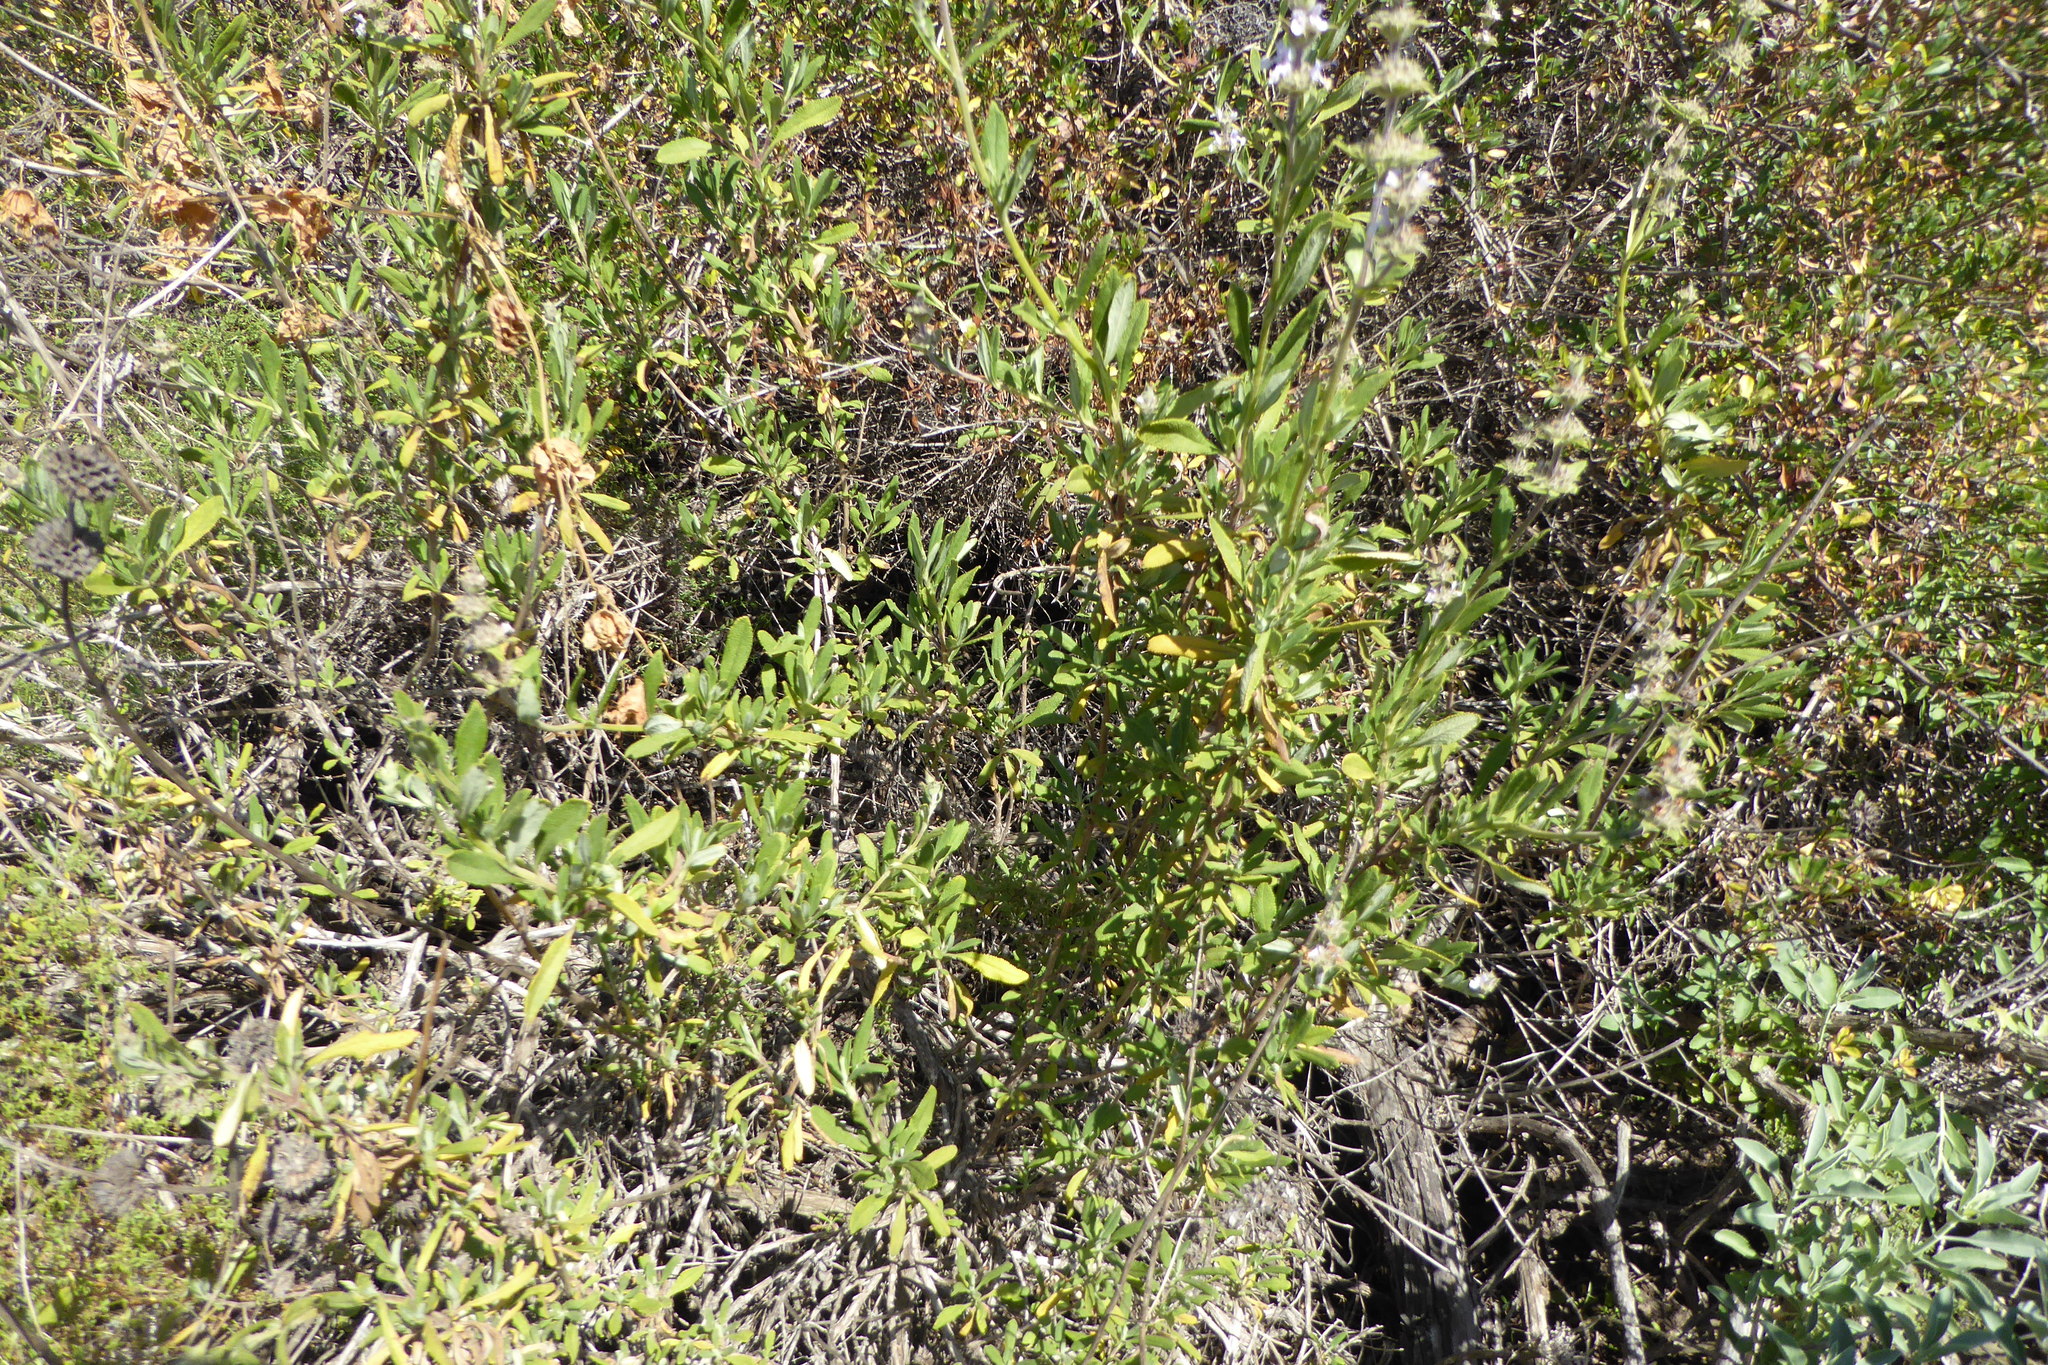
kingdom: Plantae
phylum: Tracheophyta
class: Magnoliopsida
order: Lamiales
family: Lamiaceae
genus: Salvia
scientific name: Salvia mellifera
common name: Black sage
